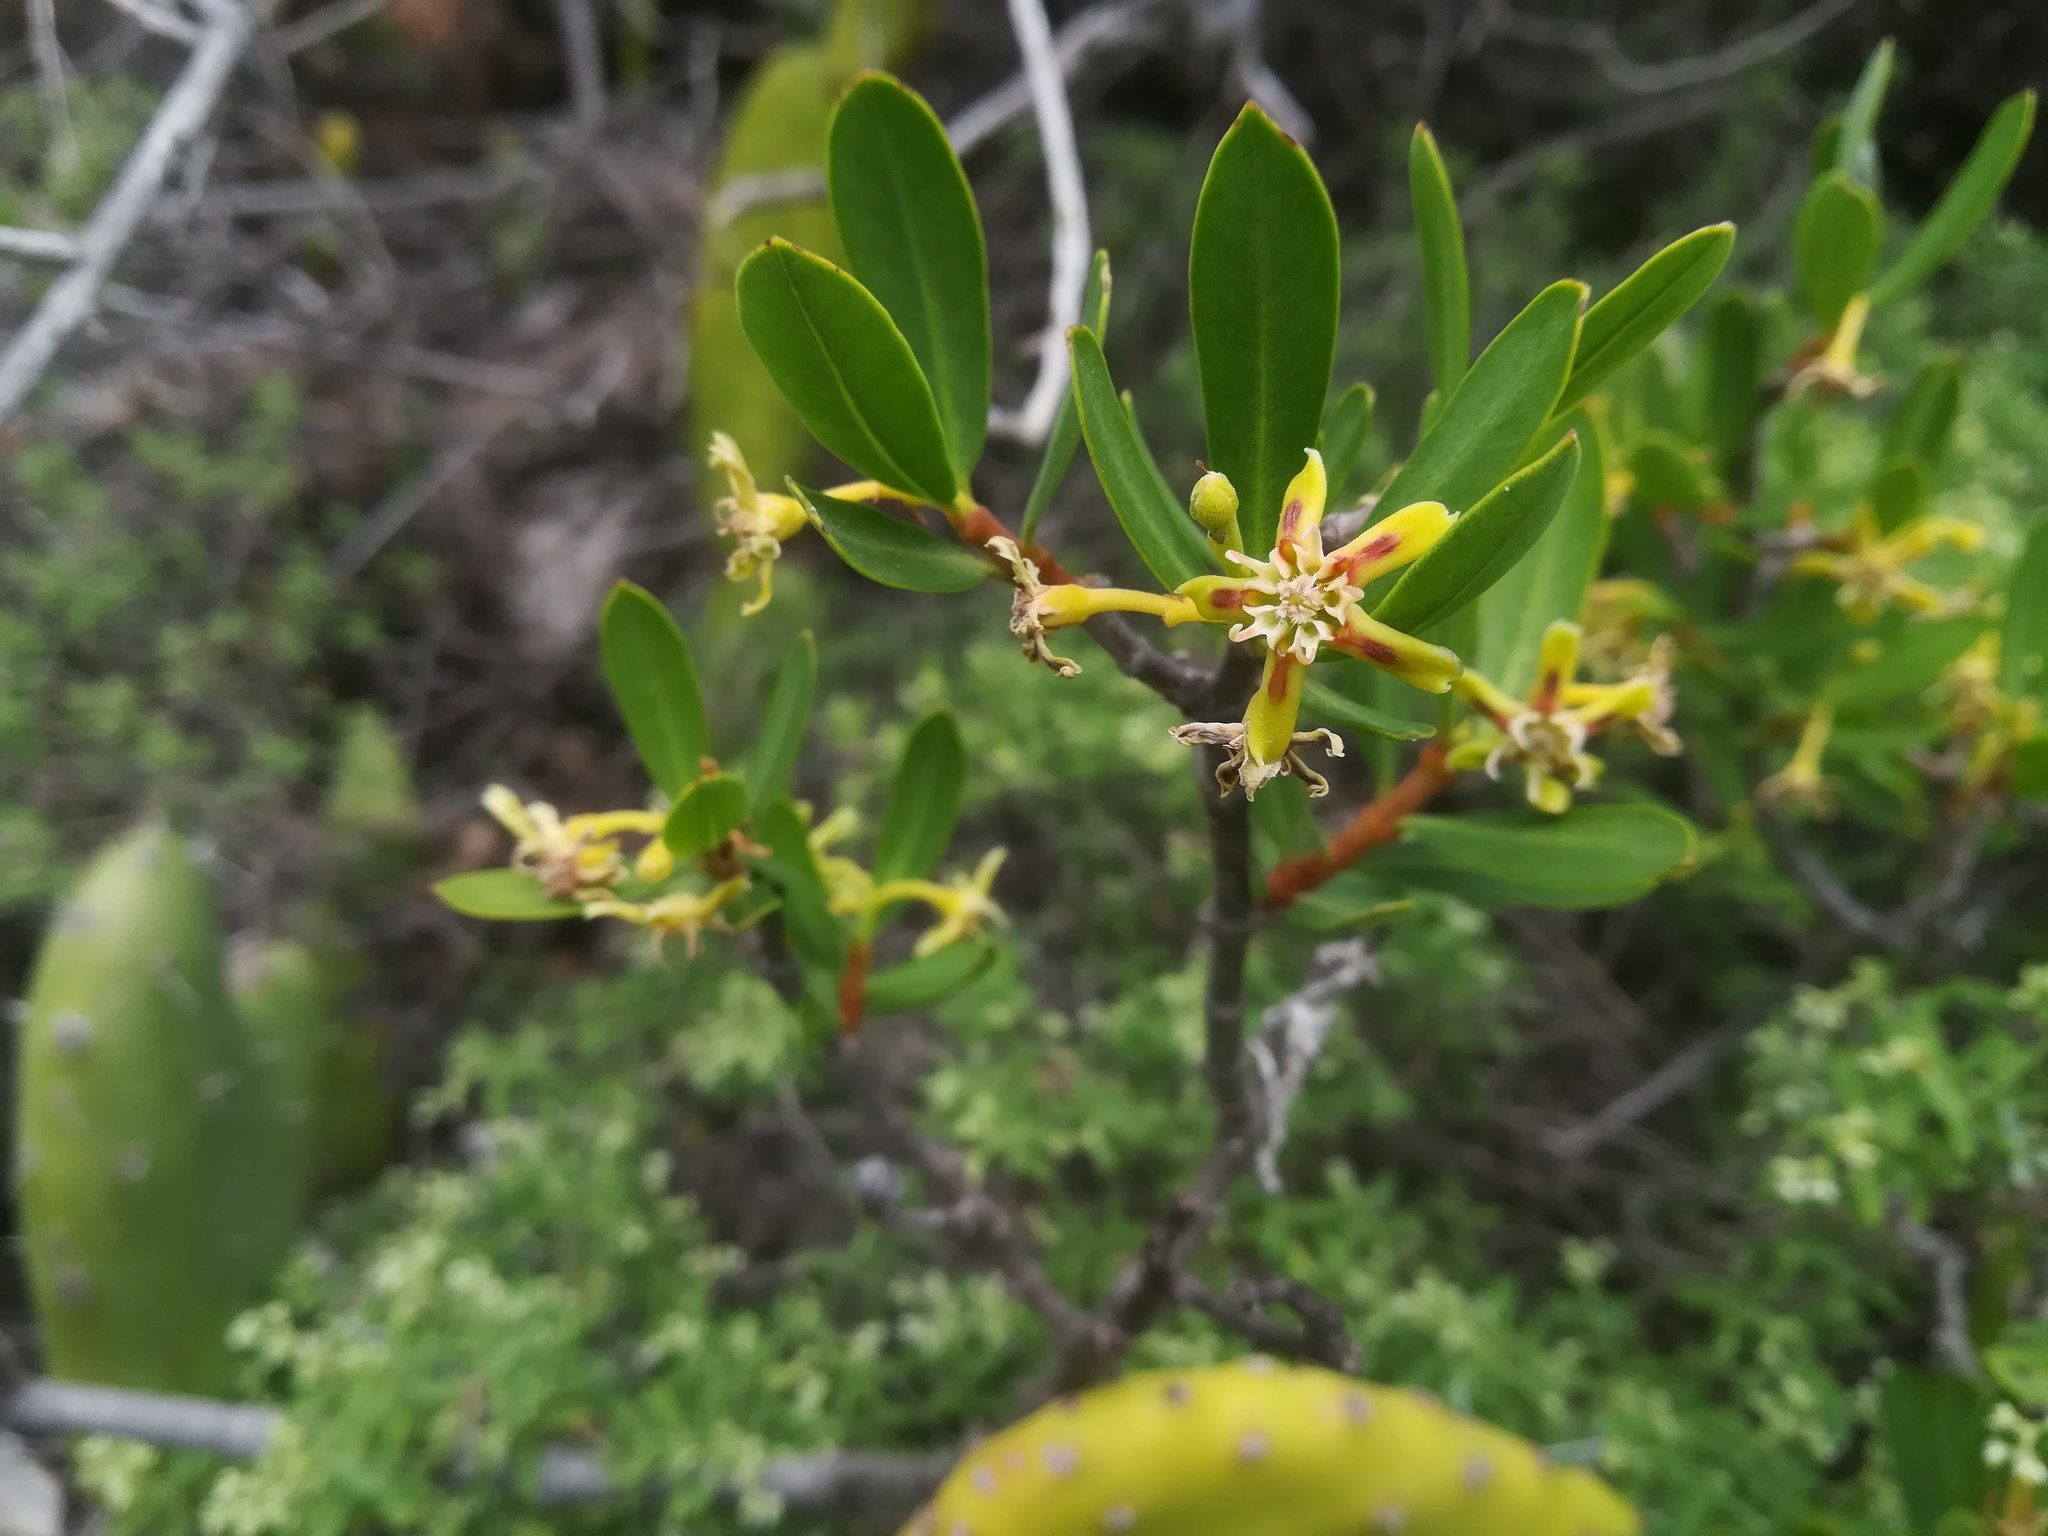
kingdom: Plantae
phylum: Tracheophyta
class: Magnoliopsida
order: Gentianales
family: Apocynaceae
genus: Periploca
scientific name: Periploca laevigata
